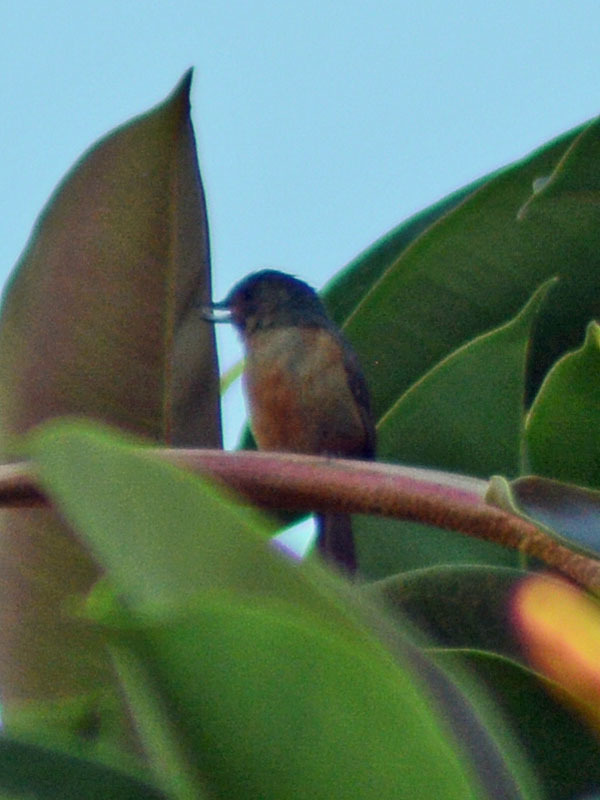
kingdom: Animalia
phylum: Chordata
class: Aves
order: Passeriformes
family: Thraupidae
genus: Diglossa
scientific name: Diglossa baritula
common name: Cinnamon-bellied flowerpiercer
